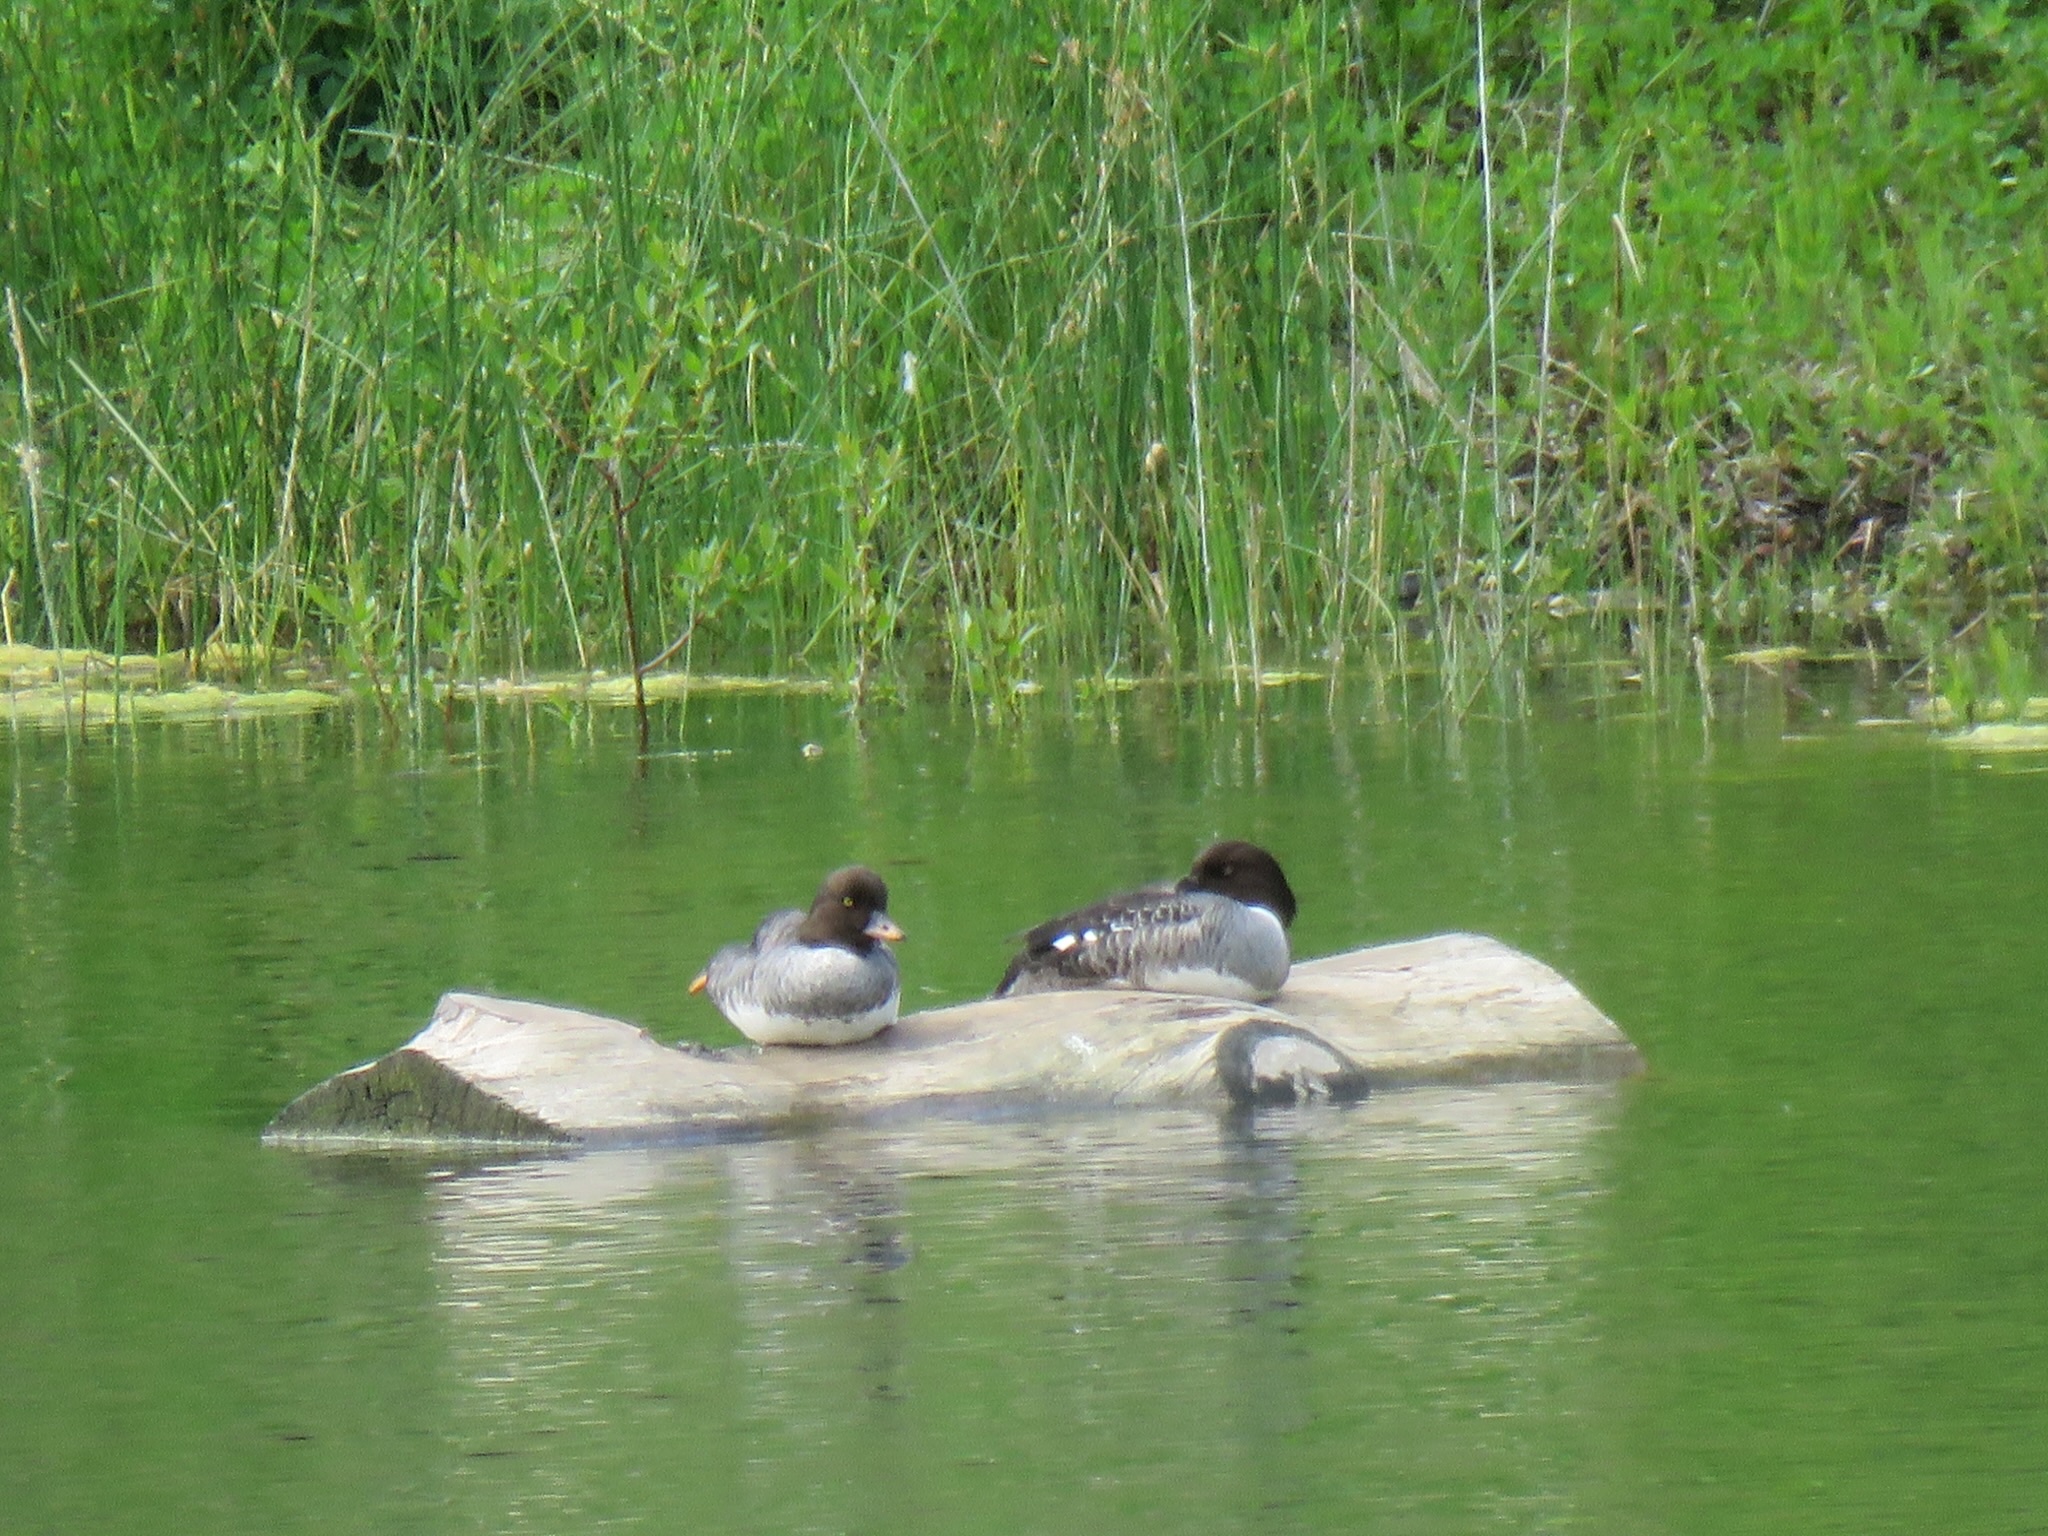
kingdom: Animalia
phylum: Chordata
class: Aves
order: Anseriformes
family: Anatidae
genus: Bucephala
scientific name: Bucephala islandica
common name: Barrow's goldeneye
